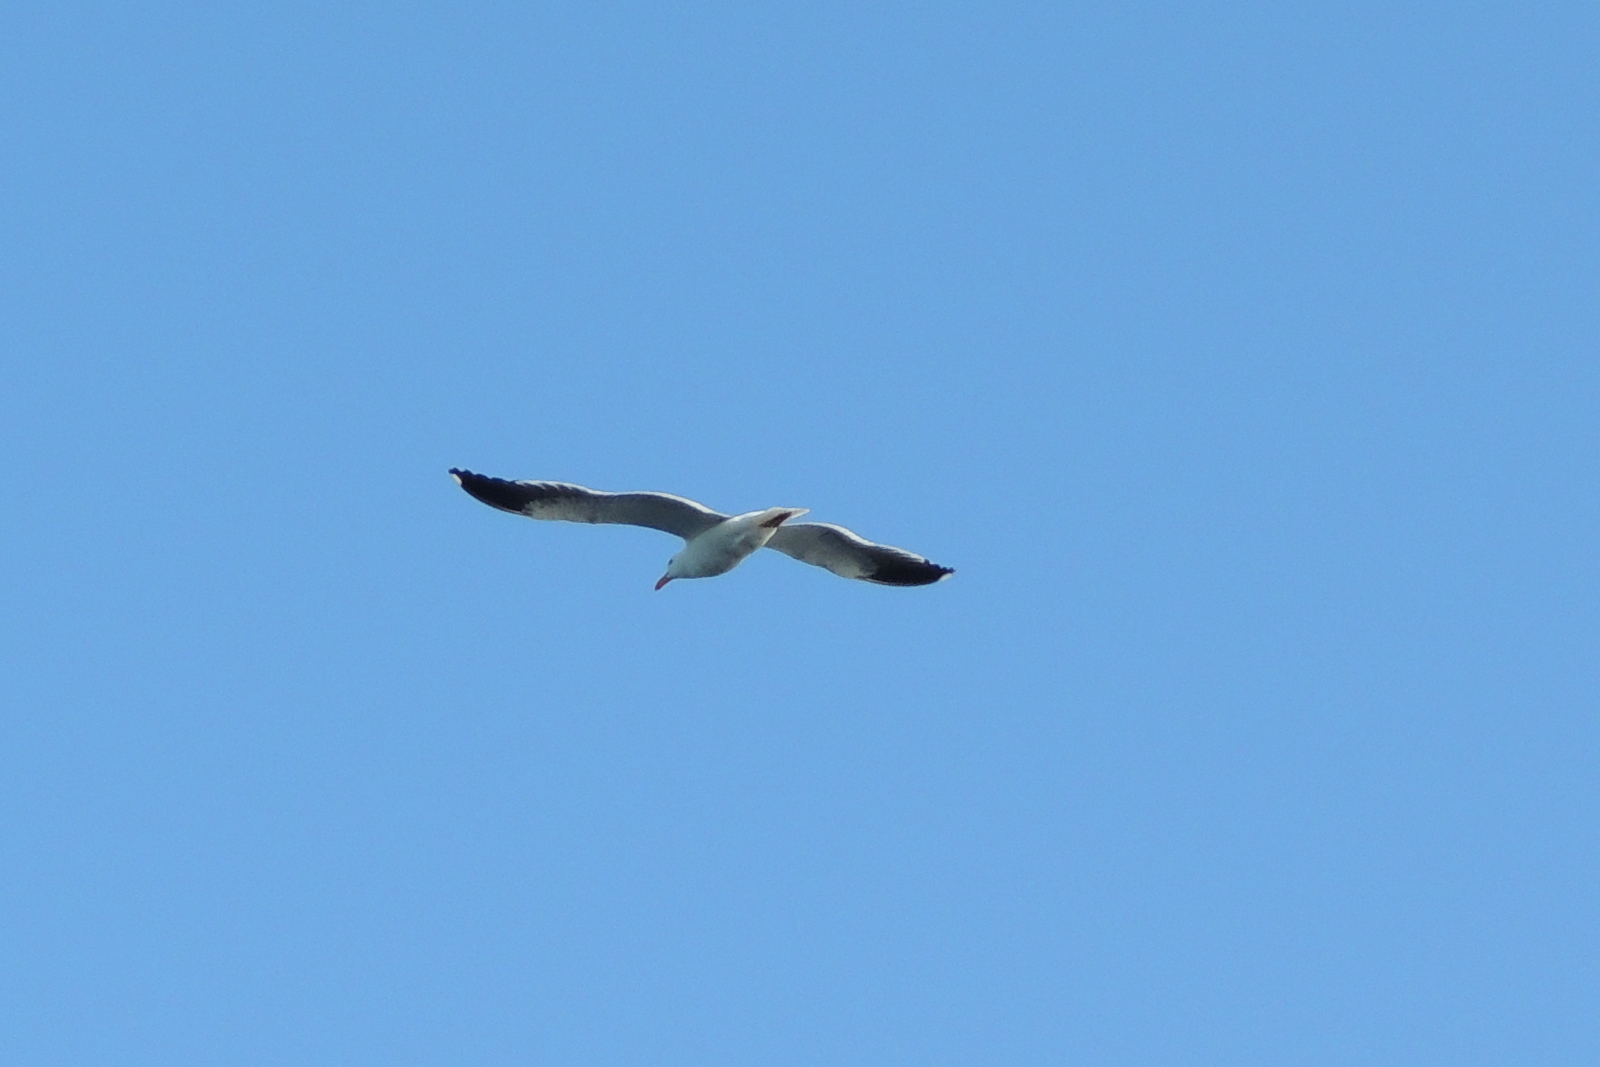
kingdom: Animalia
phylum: Chordata
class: Aves
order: Charadriiformes
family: Laridae
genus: Larus
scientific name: Larus occidentalis
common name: Western gull
